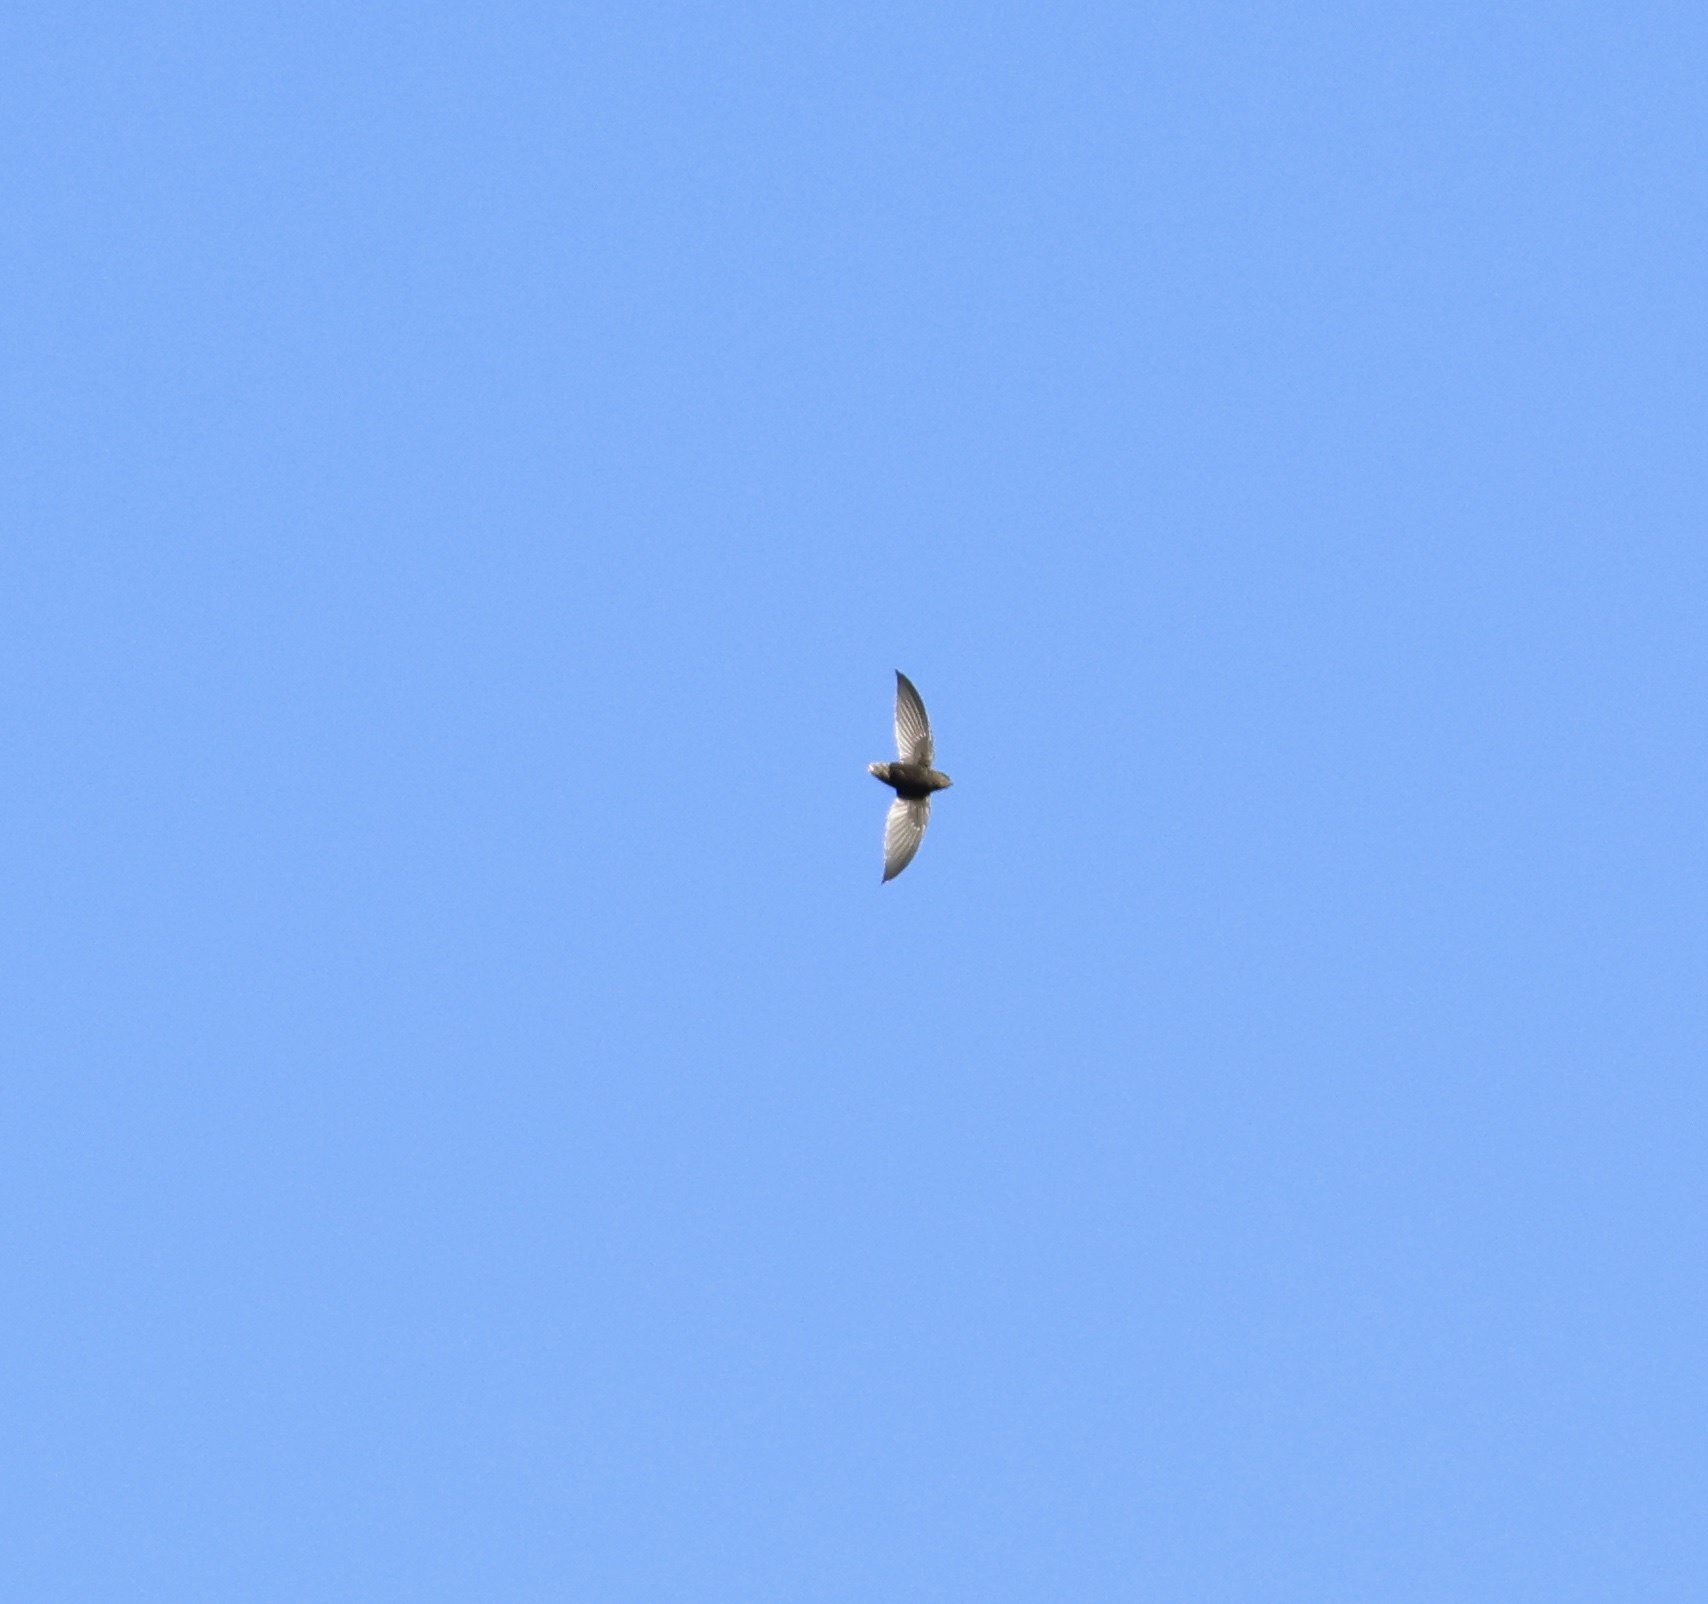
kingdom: Animalia
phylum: Chordata
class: Aves
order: Apodiformes
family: Apodidae
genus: Chaetura
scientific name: Chaetura brachyura
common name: Short-tailed swift
